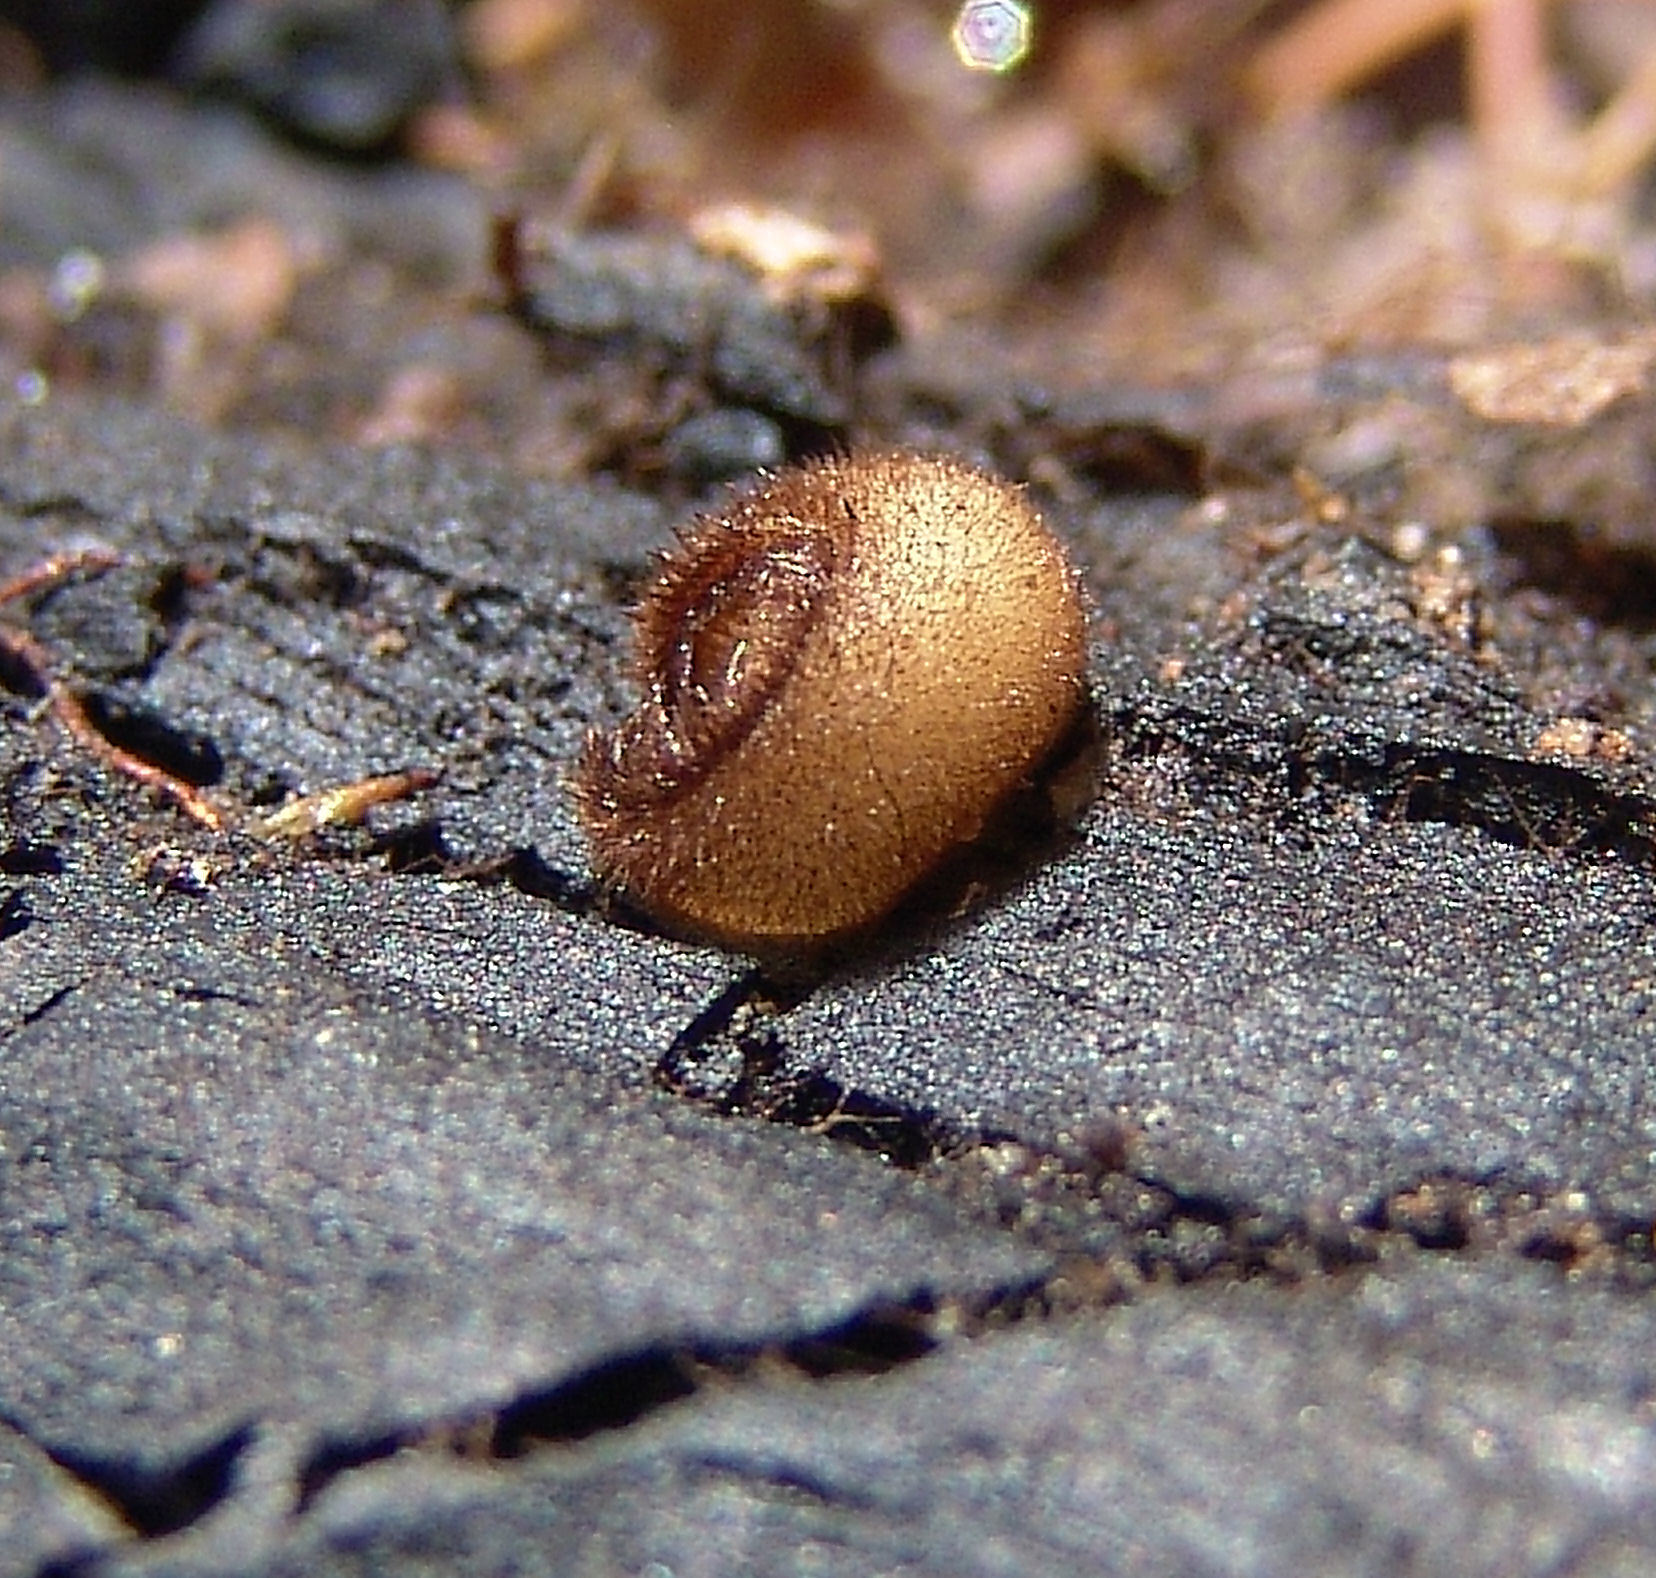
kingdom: Fungi
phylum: Ascomycota
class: Pezizomycetes
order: Pezizales
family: Pyronemataceae
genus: Humaria
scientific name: Humaria hemisphaerica
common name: Glazed cup
